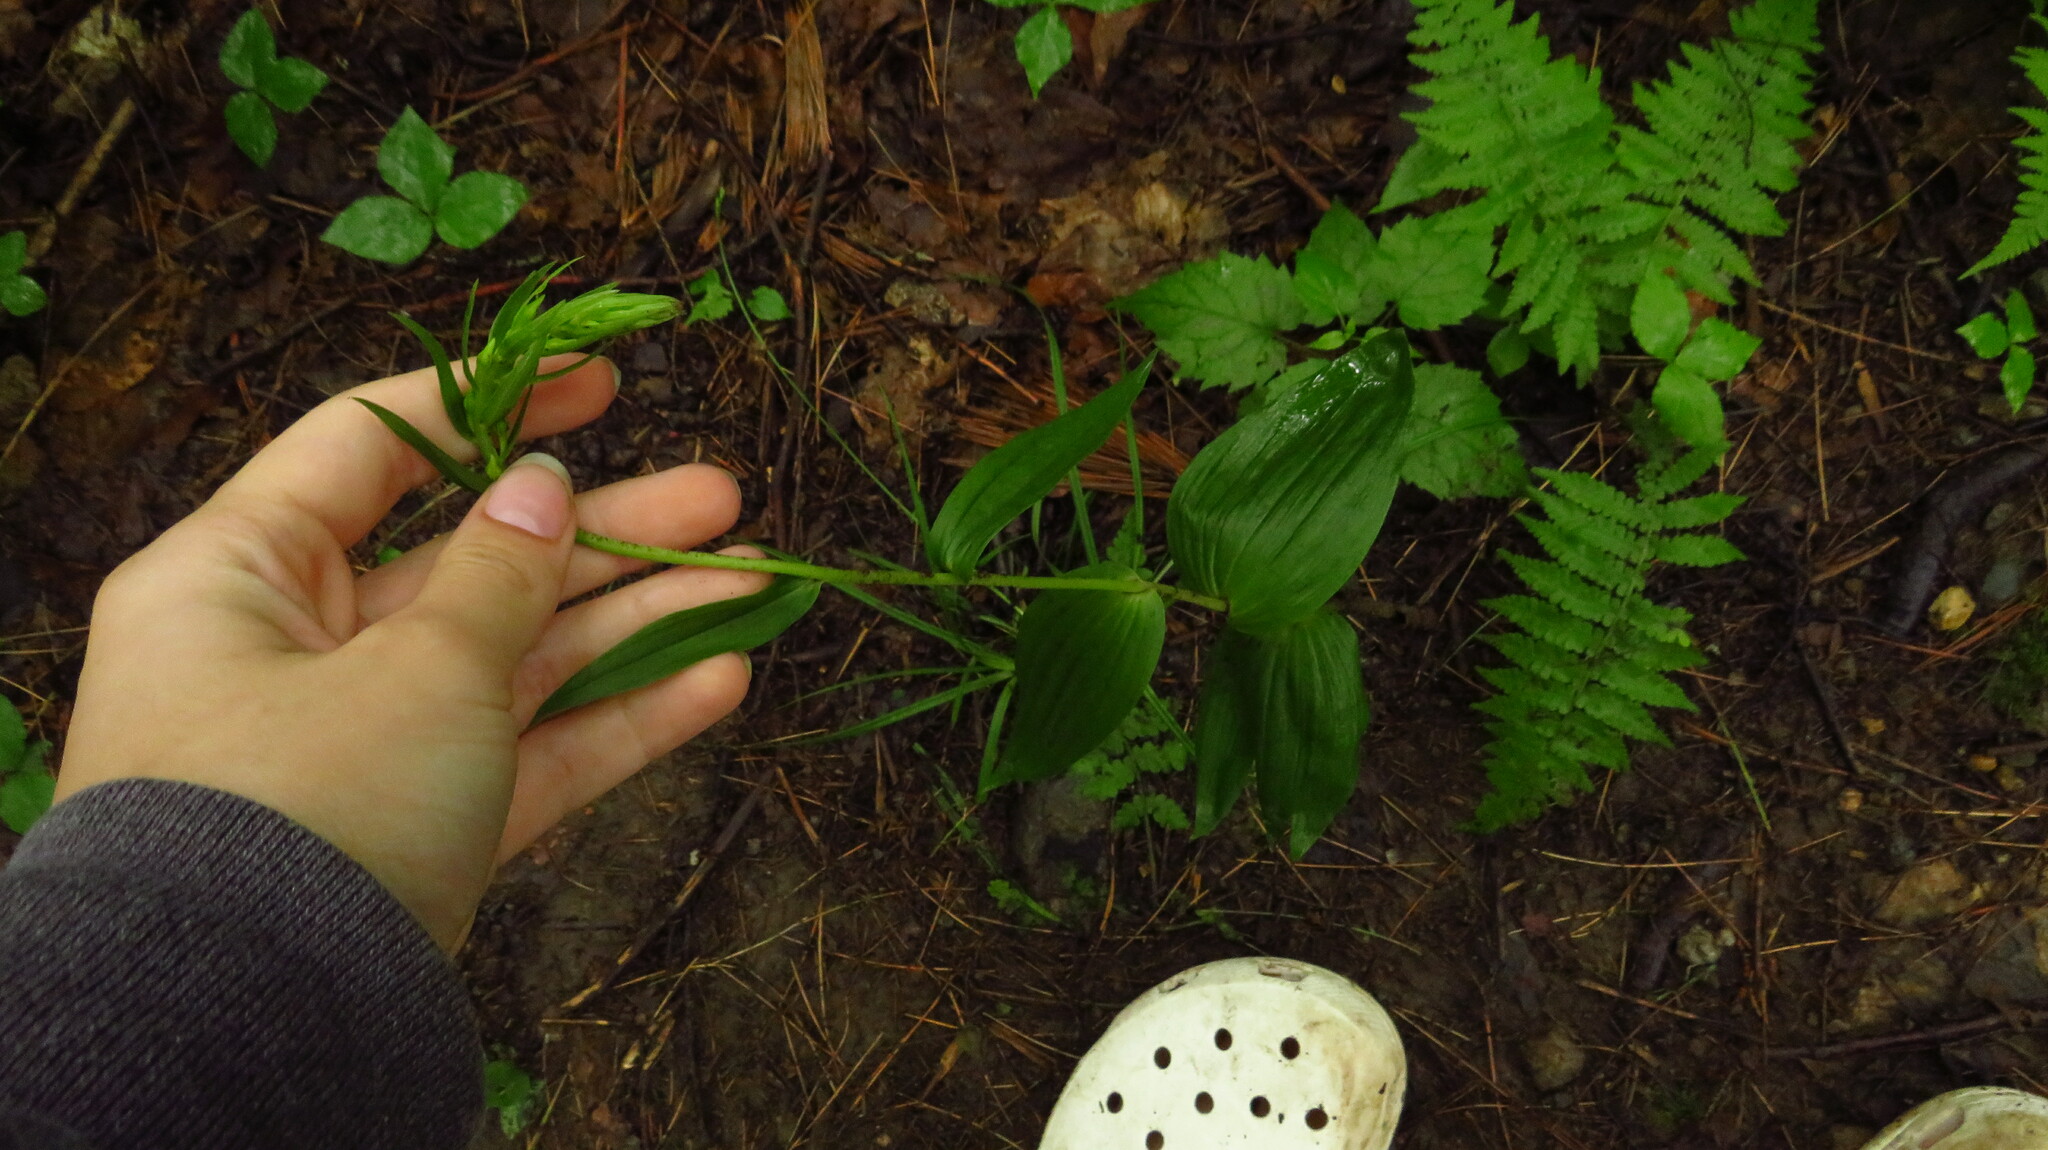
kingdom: Plantae
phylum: Tracheophyta
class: Liliopsida
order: Asparagales
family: Orchidaceae
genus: Epipactis
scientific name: Epipactis helleborine
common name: Broad-leaved helleborine
